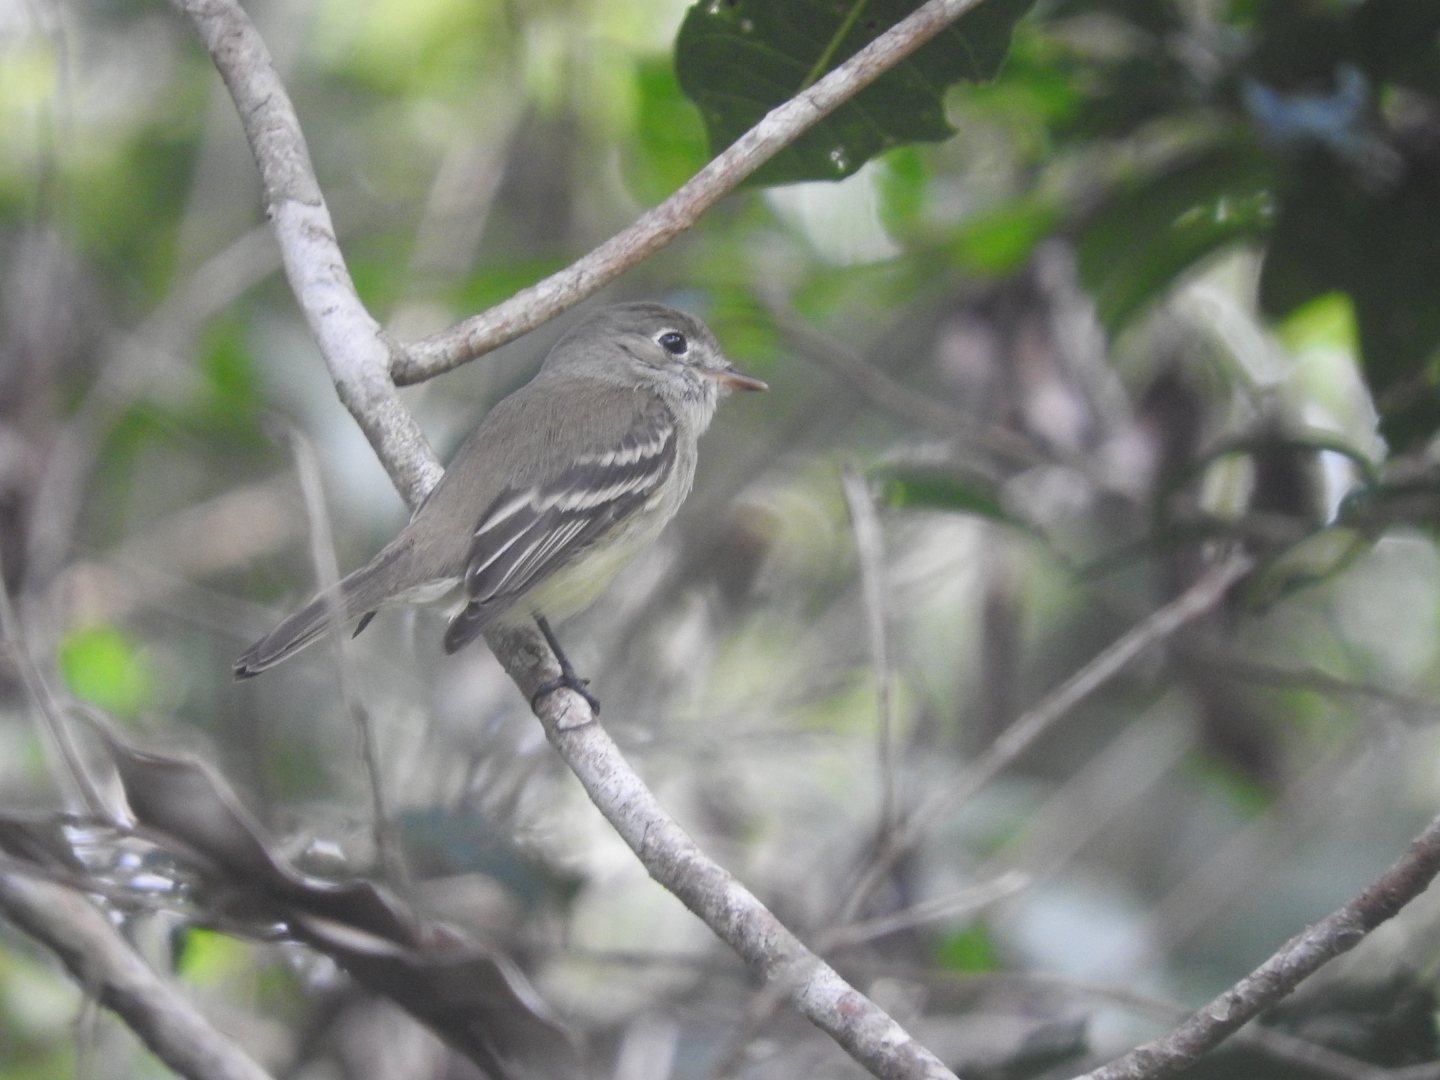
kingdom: Animalia
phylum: Chordata
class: Aves
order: Passeriformes
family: Tyrannidae
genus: Empidonax
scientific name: Empidonax minimus
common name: Least flycatcher
